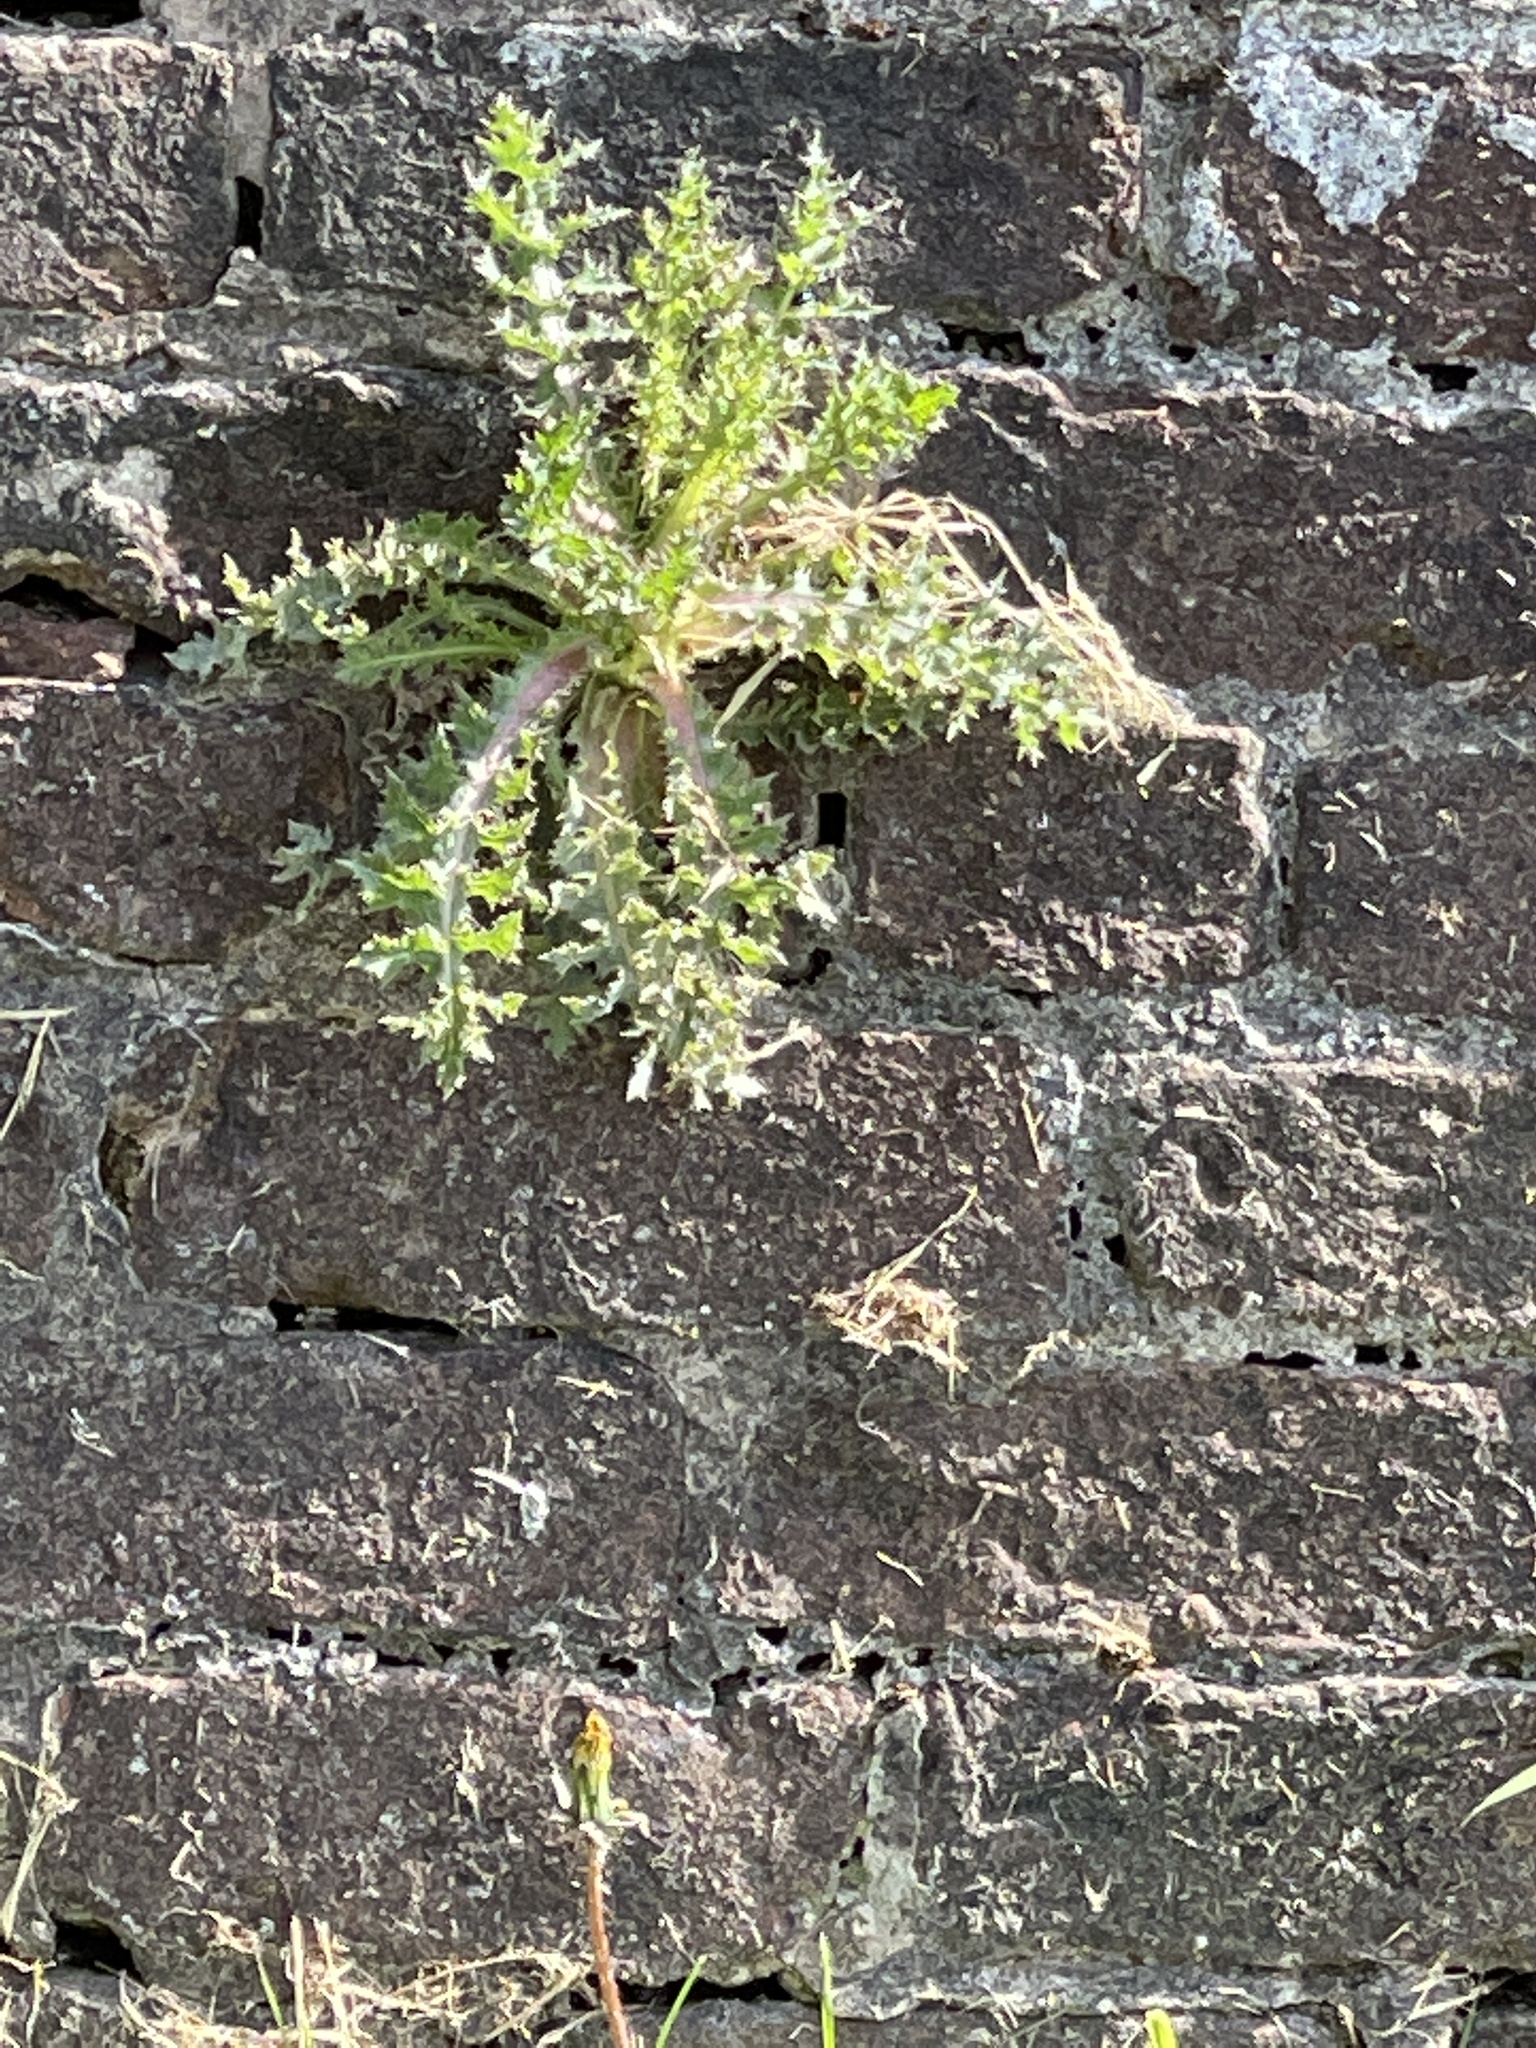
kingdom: Plantae
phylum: Tracheophyta
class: Magnoliopsida
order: Asterales
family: Asteraceae
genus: Sonchus
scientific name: Sonchus asper
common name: Prickly sow-thistle
